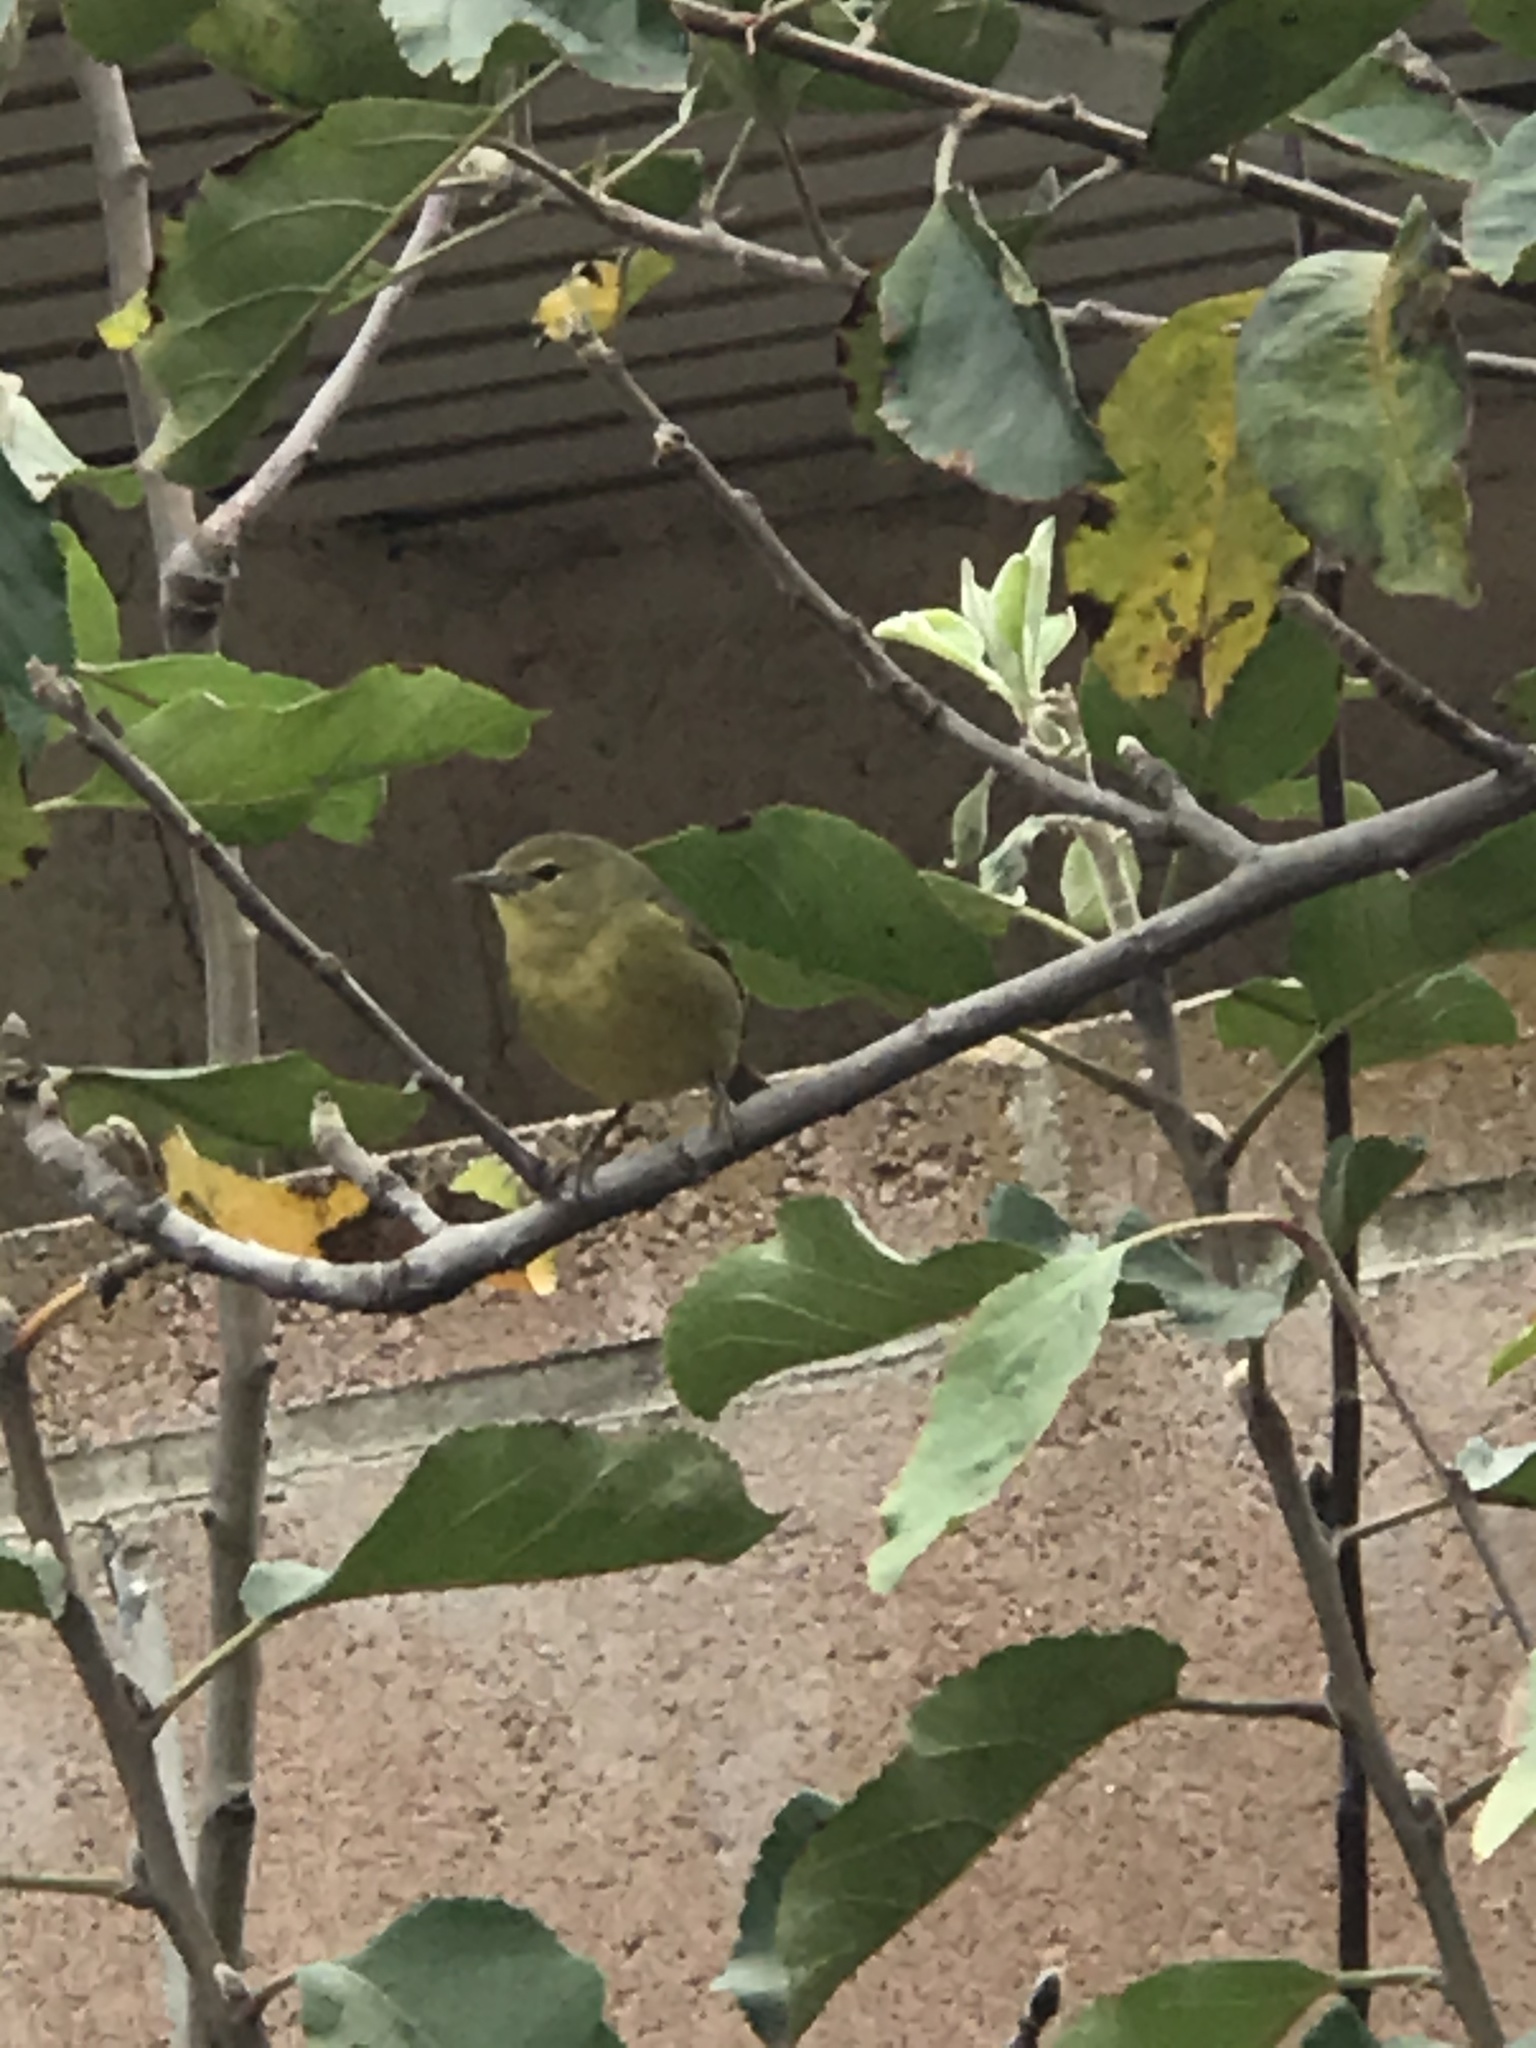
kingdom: Animalia
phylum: Chordata
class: Aves
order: Passeriformes
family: Parulidae
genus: Leiothlypis
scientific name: Leiothlypis celata
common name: Orange-crowned warbler
